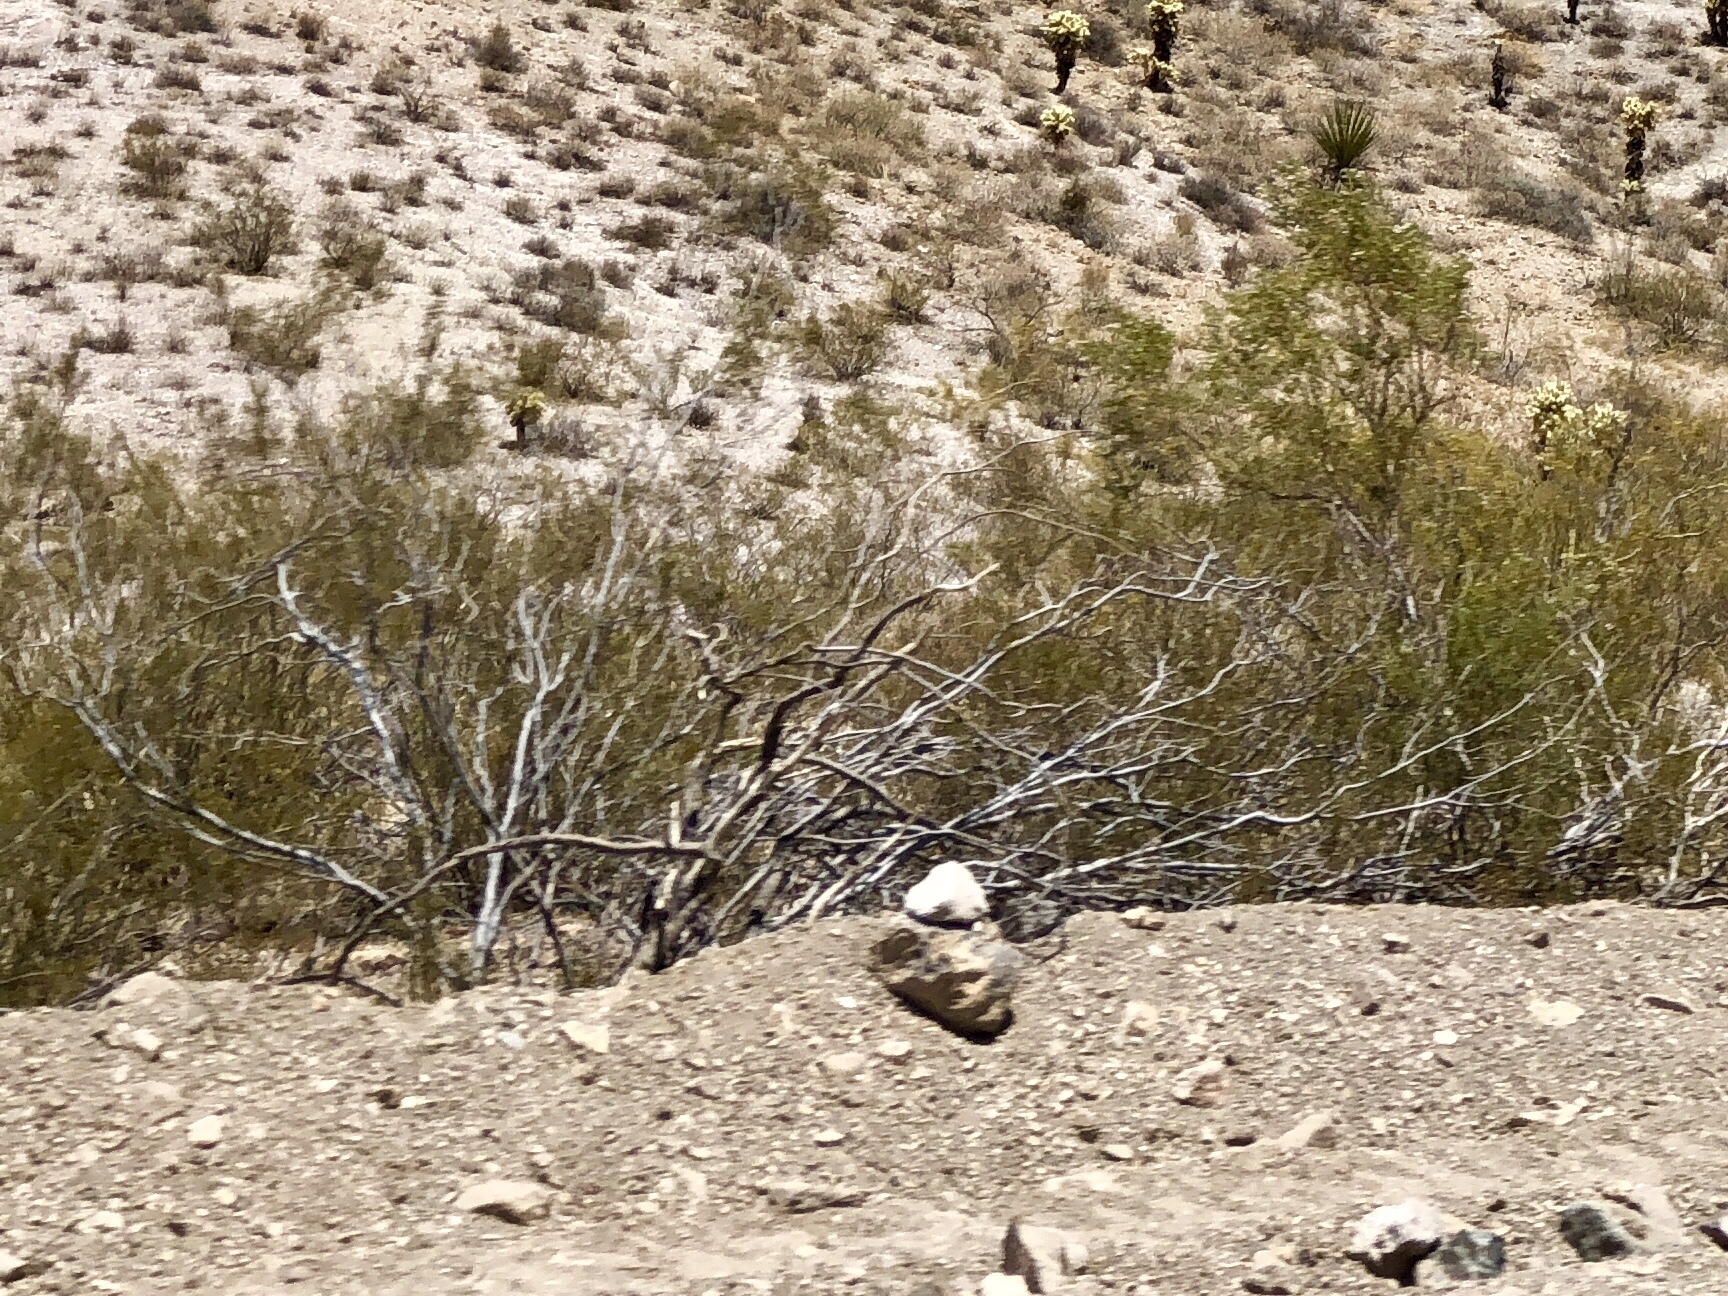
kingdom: Plantae
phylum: Tracheophyta
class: Magnoliopsida
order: Zygophyllales
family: Zygophyllaceae
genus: Larrea
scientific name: Larrea tridentata
